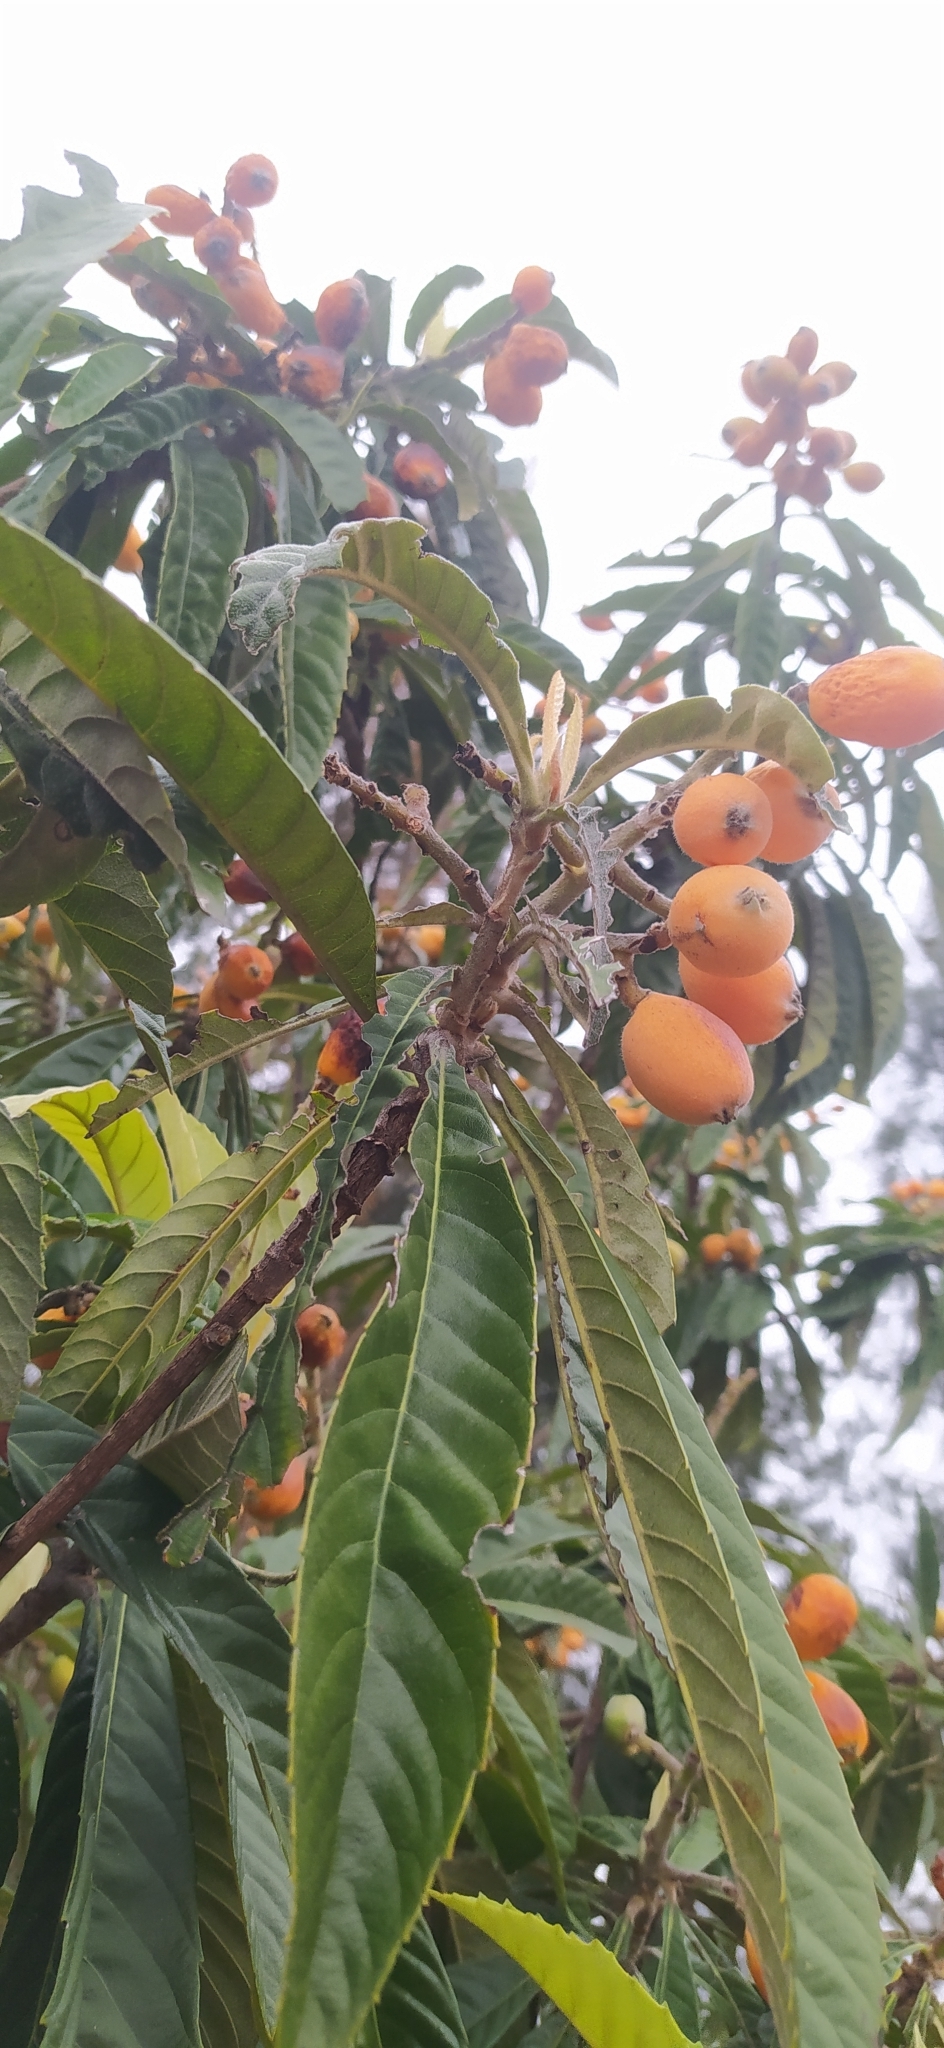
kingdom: Plantae
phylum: Tracheophyta
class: Magnoliopsida
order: Rosales
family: Rosaceae
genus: Rhaphiolepis
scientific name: Rhaphiolepis bibas
